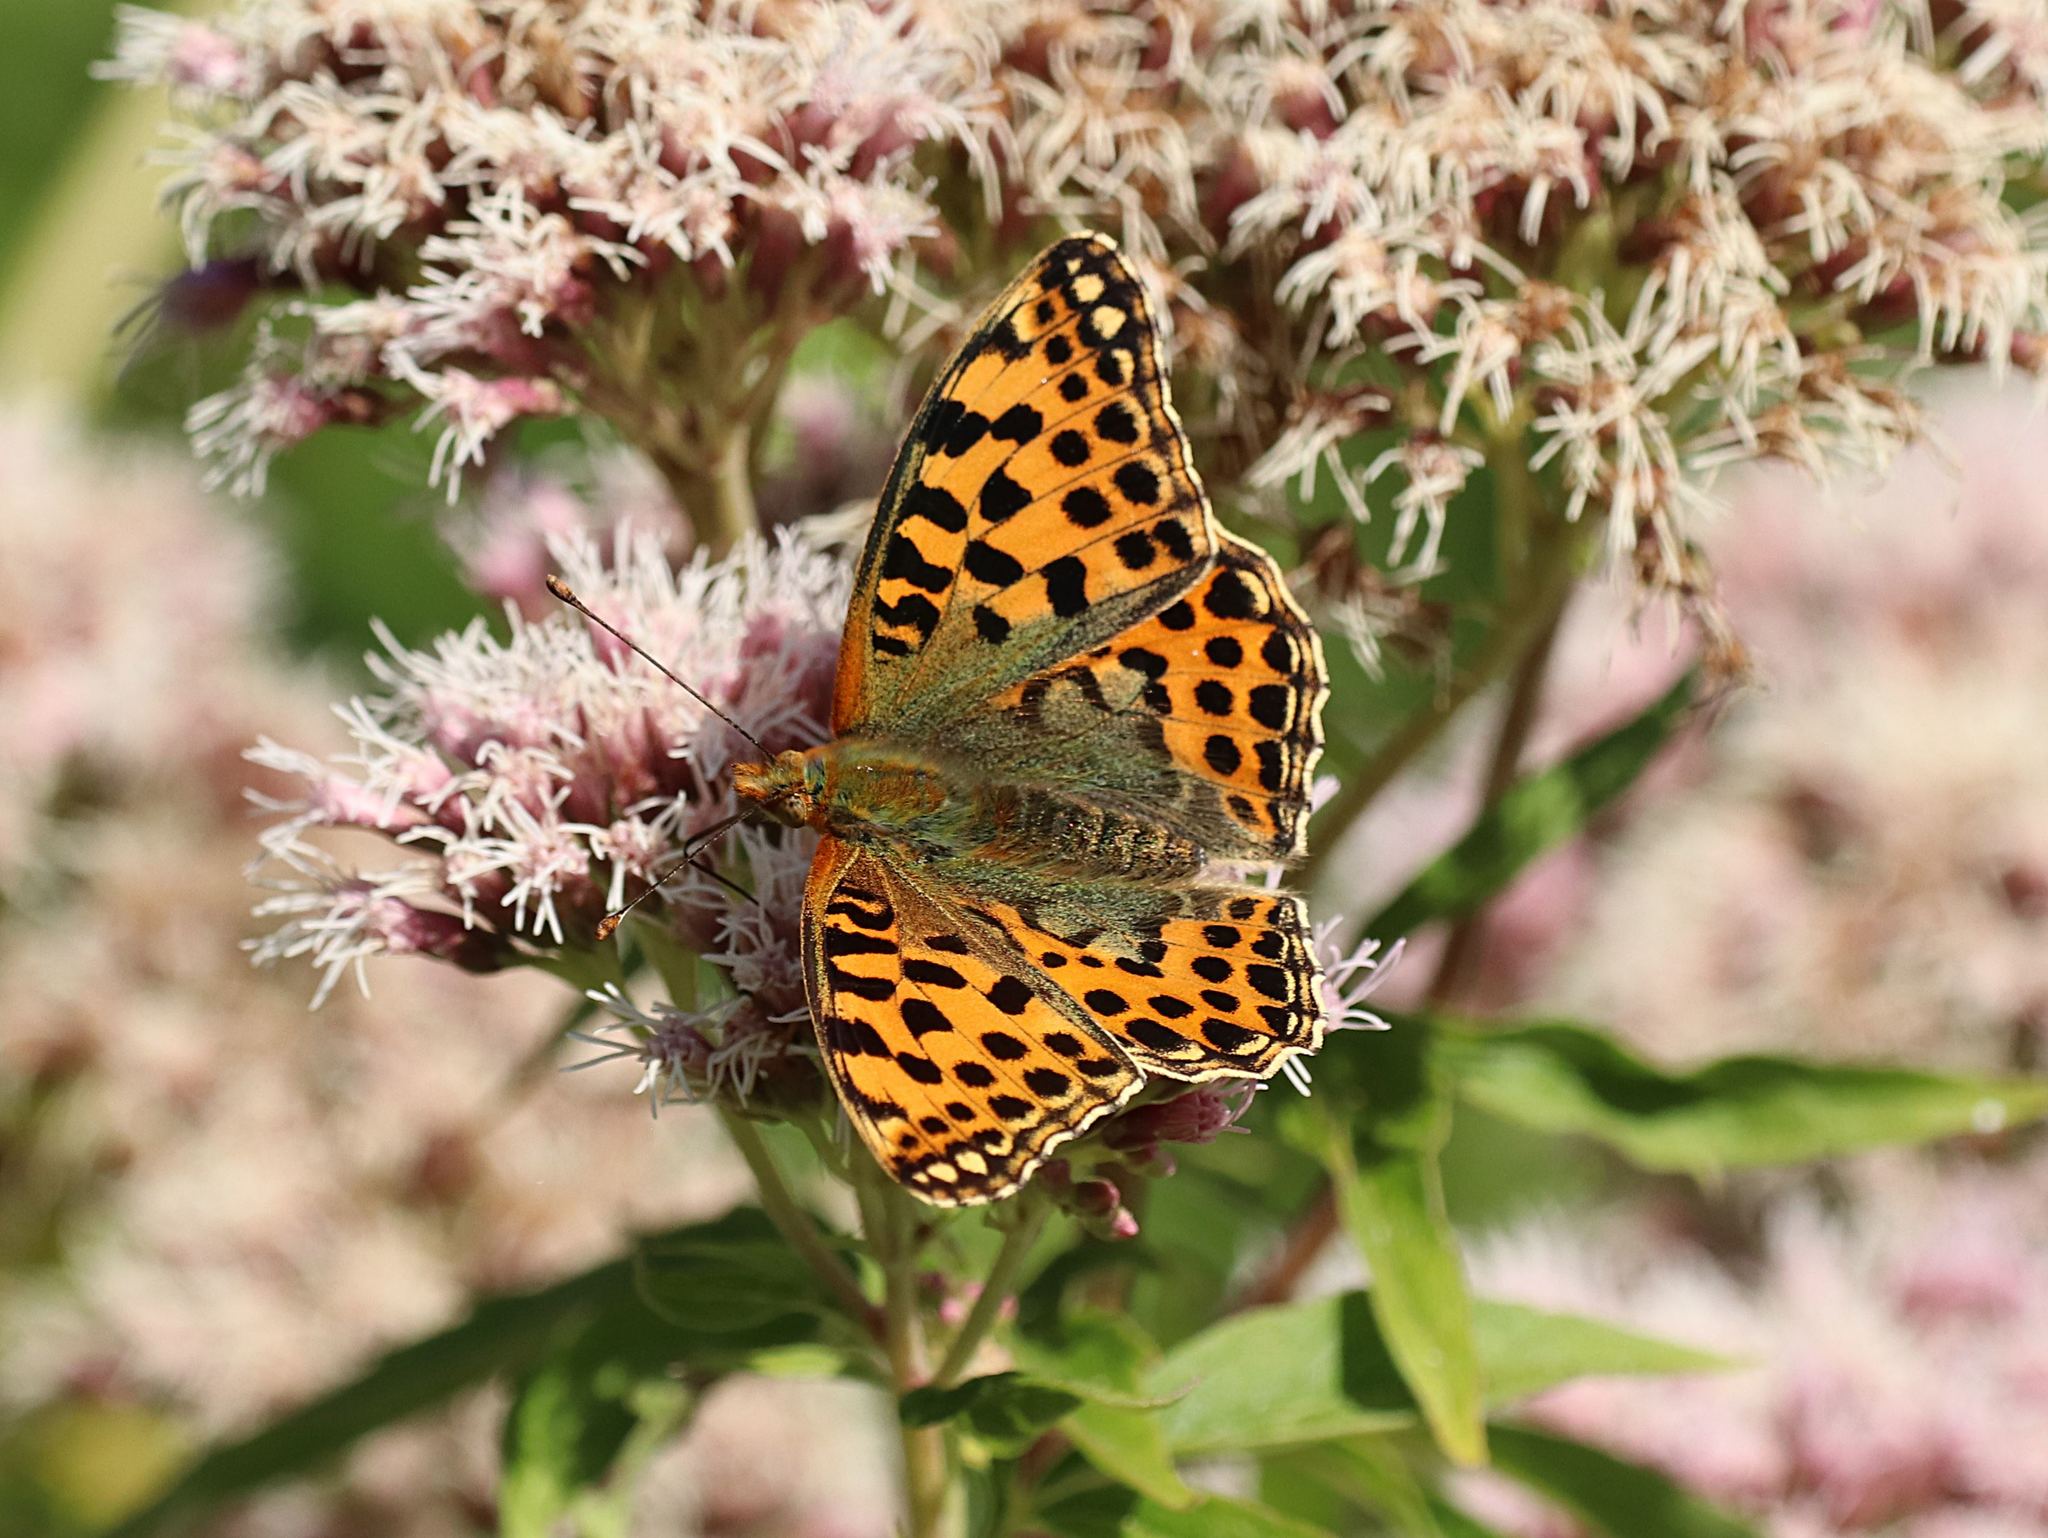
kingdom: Animalia
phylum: Arthropoda
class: Insecta
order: Lepidoptera
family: Nymphalidae
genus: Issoria
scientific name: Issoria lathonia
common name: Queen of spain fritillary
